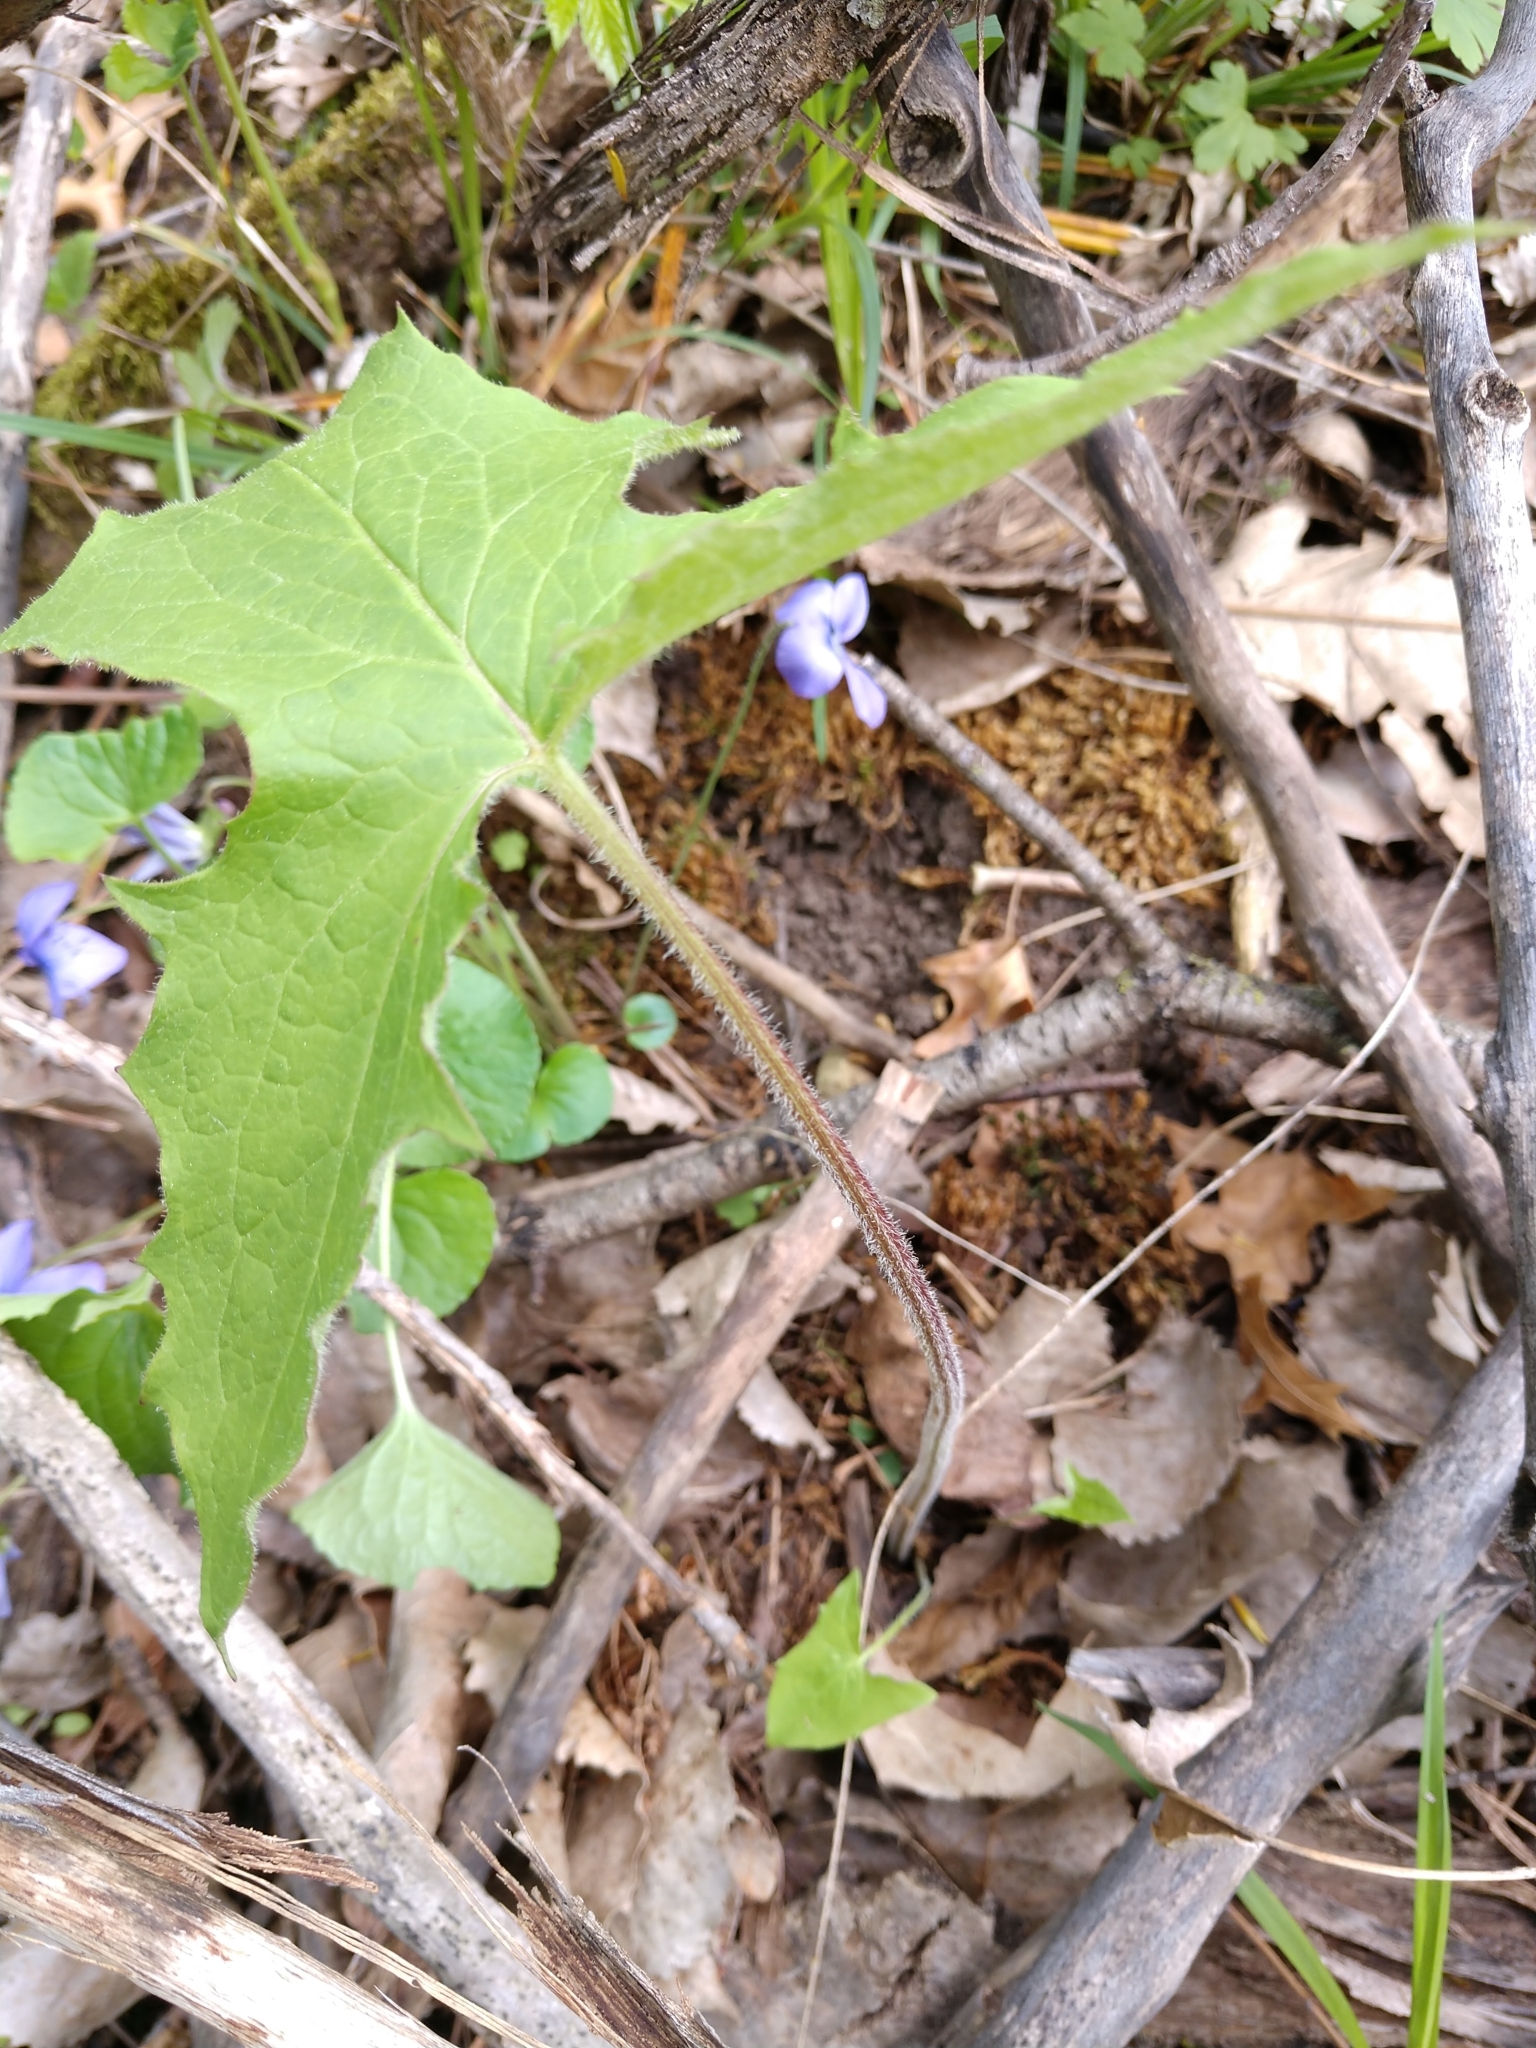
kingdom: Plantae
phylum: Tracheophyta
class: Magnoliopsida
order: Asterales
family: Asteraceae
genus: Nabalus
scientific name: Nabalus albus
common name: White rattlesnakeroot
